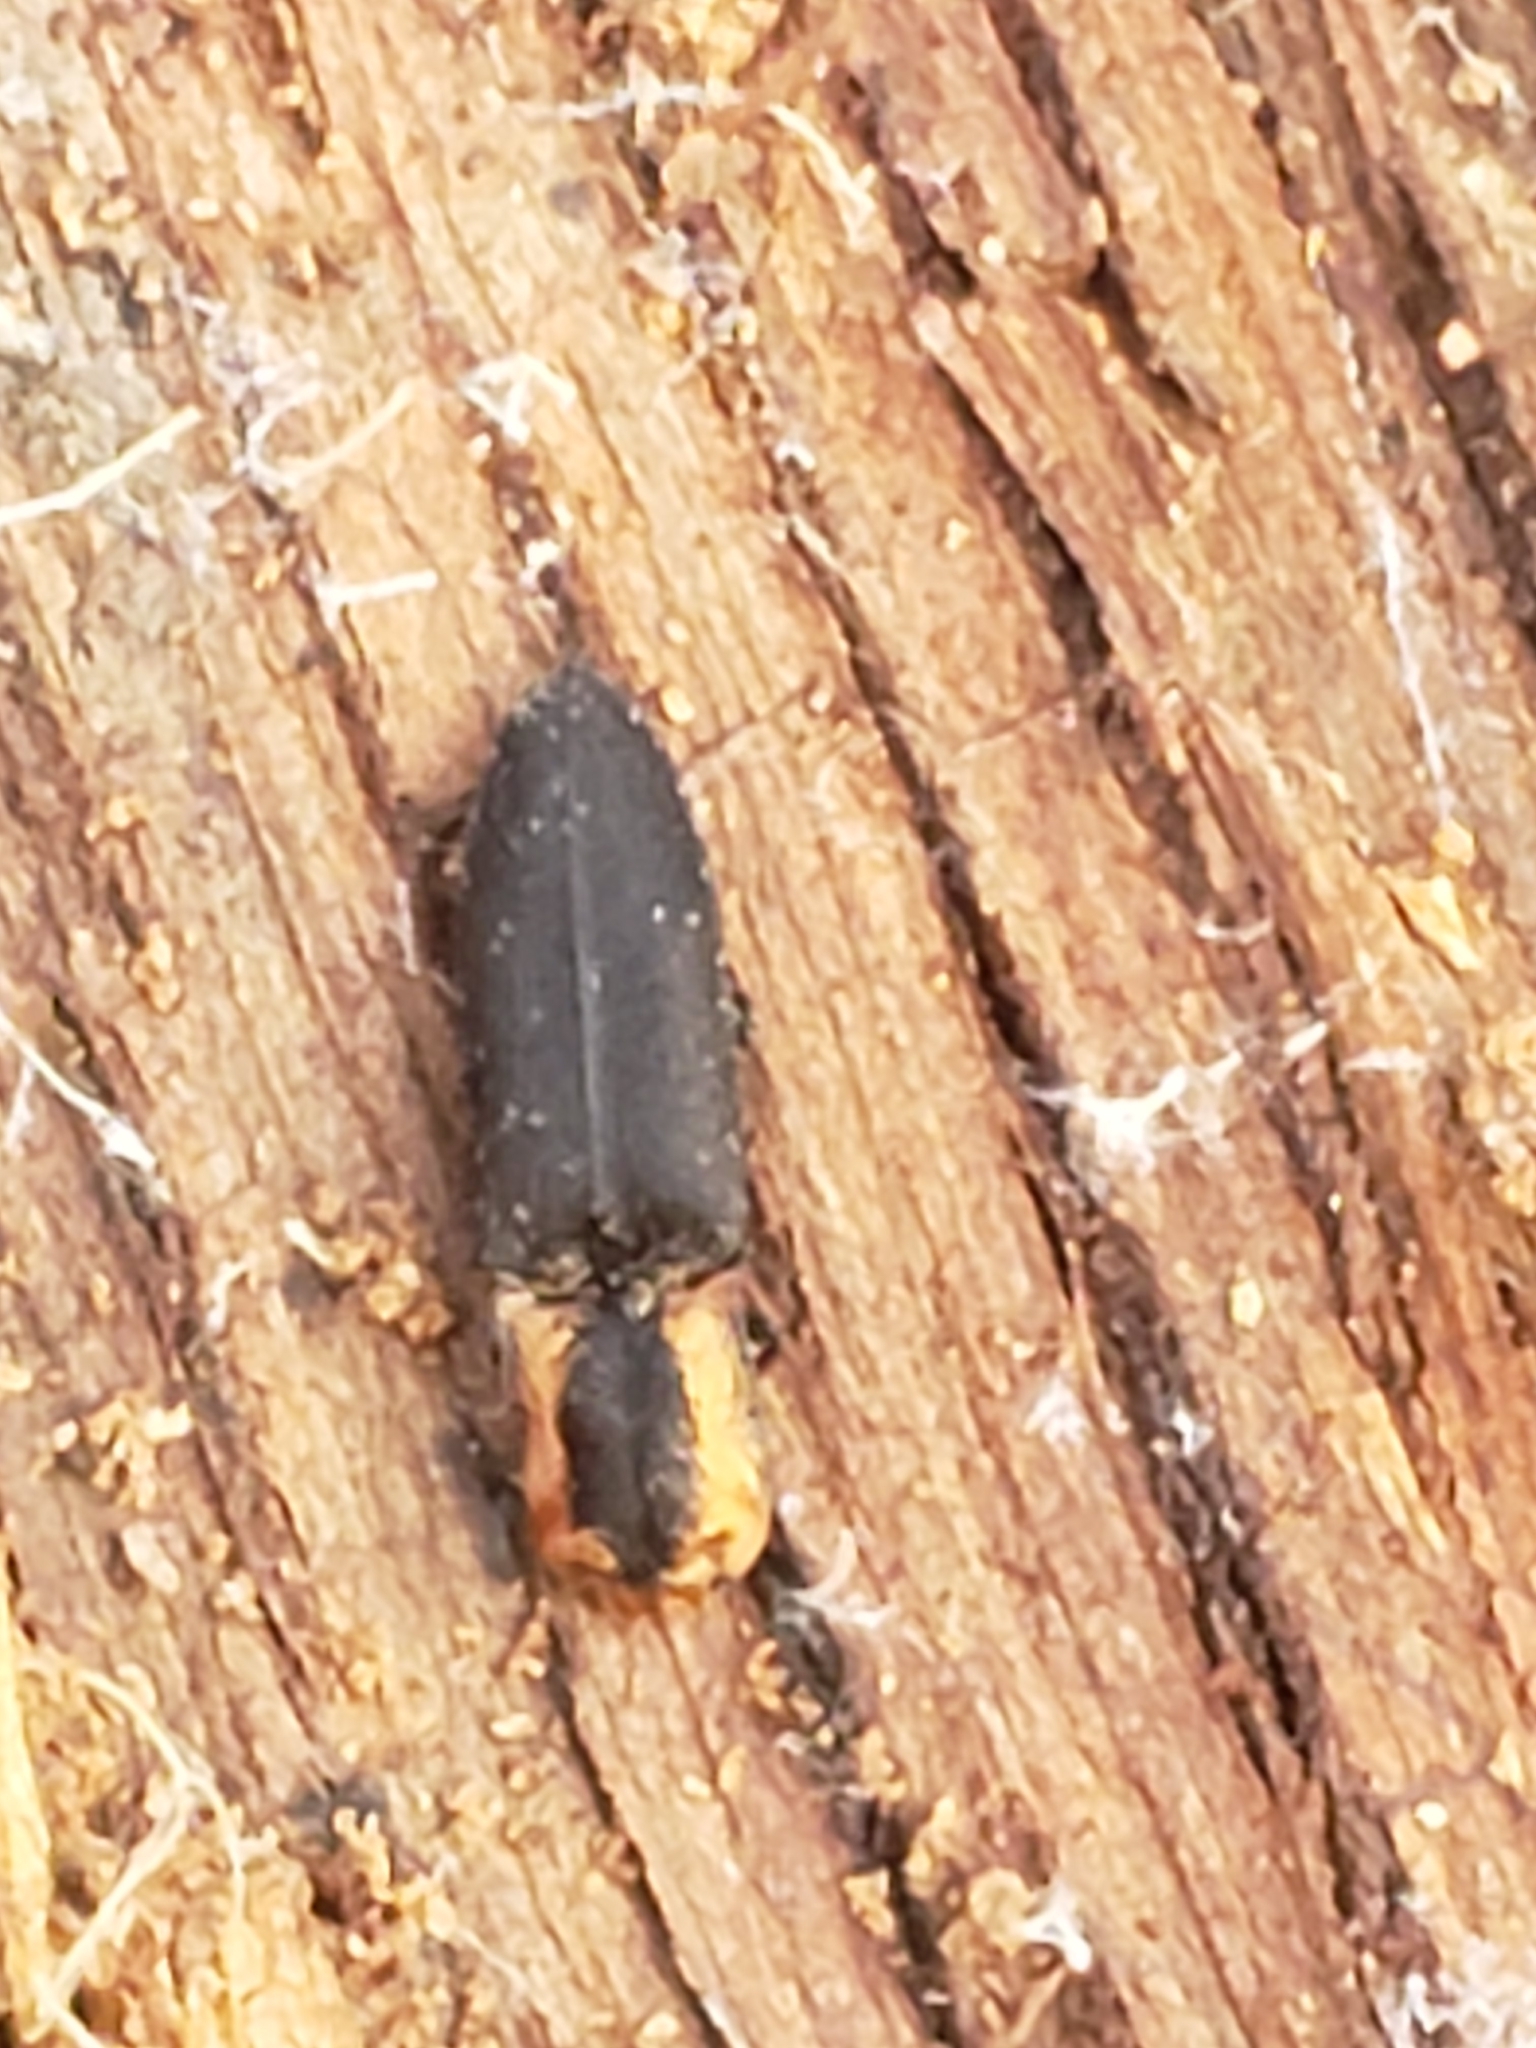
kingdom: Animalia
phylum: Arthropoda
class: Insecta
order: Coleoptera
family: Elateridae
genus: Lacon
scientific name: Lacon discoideus
